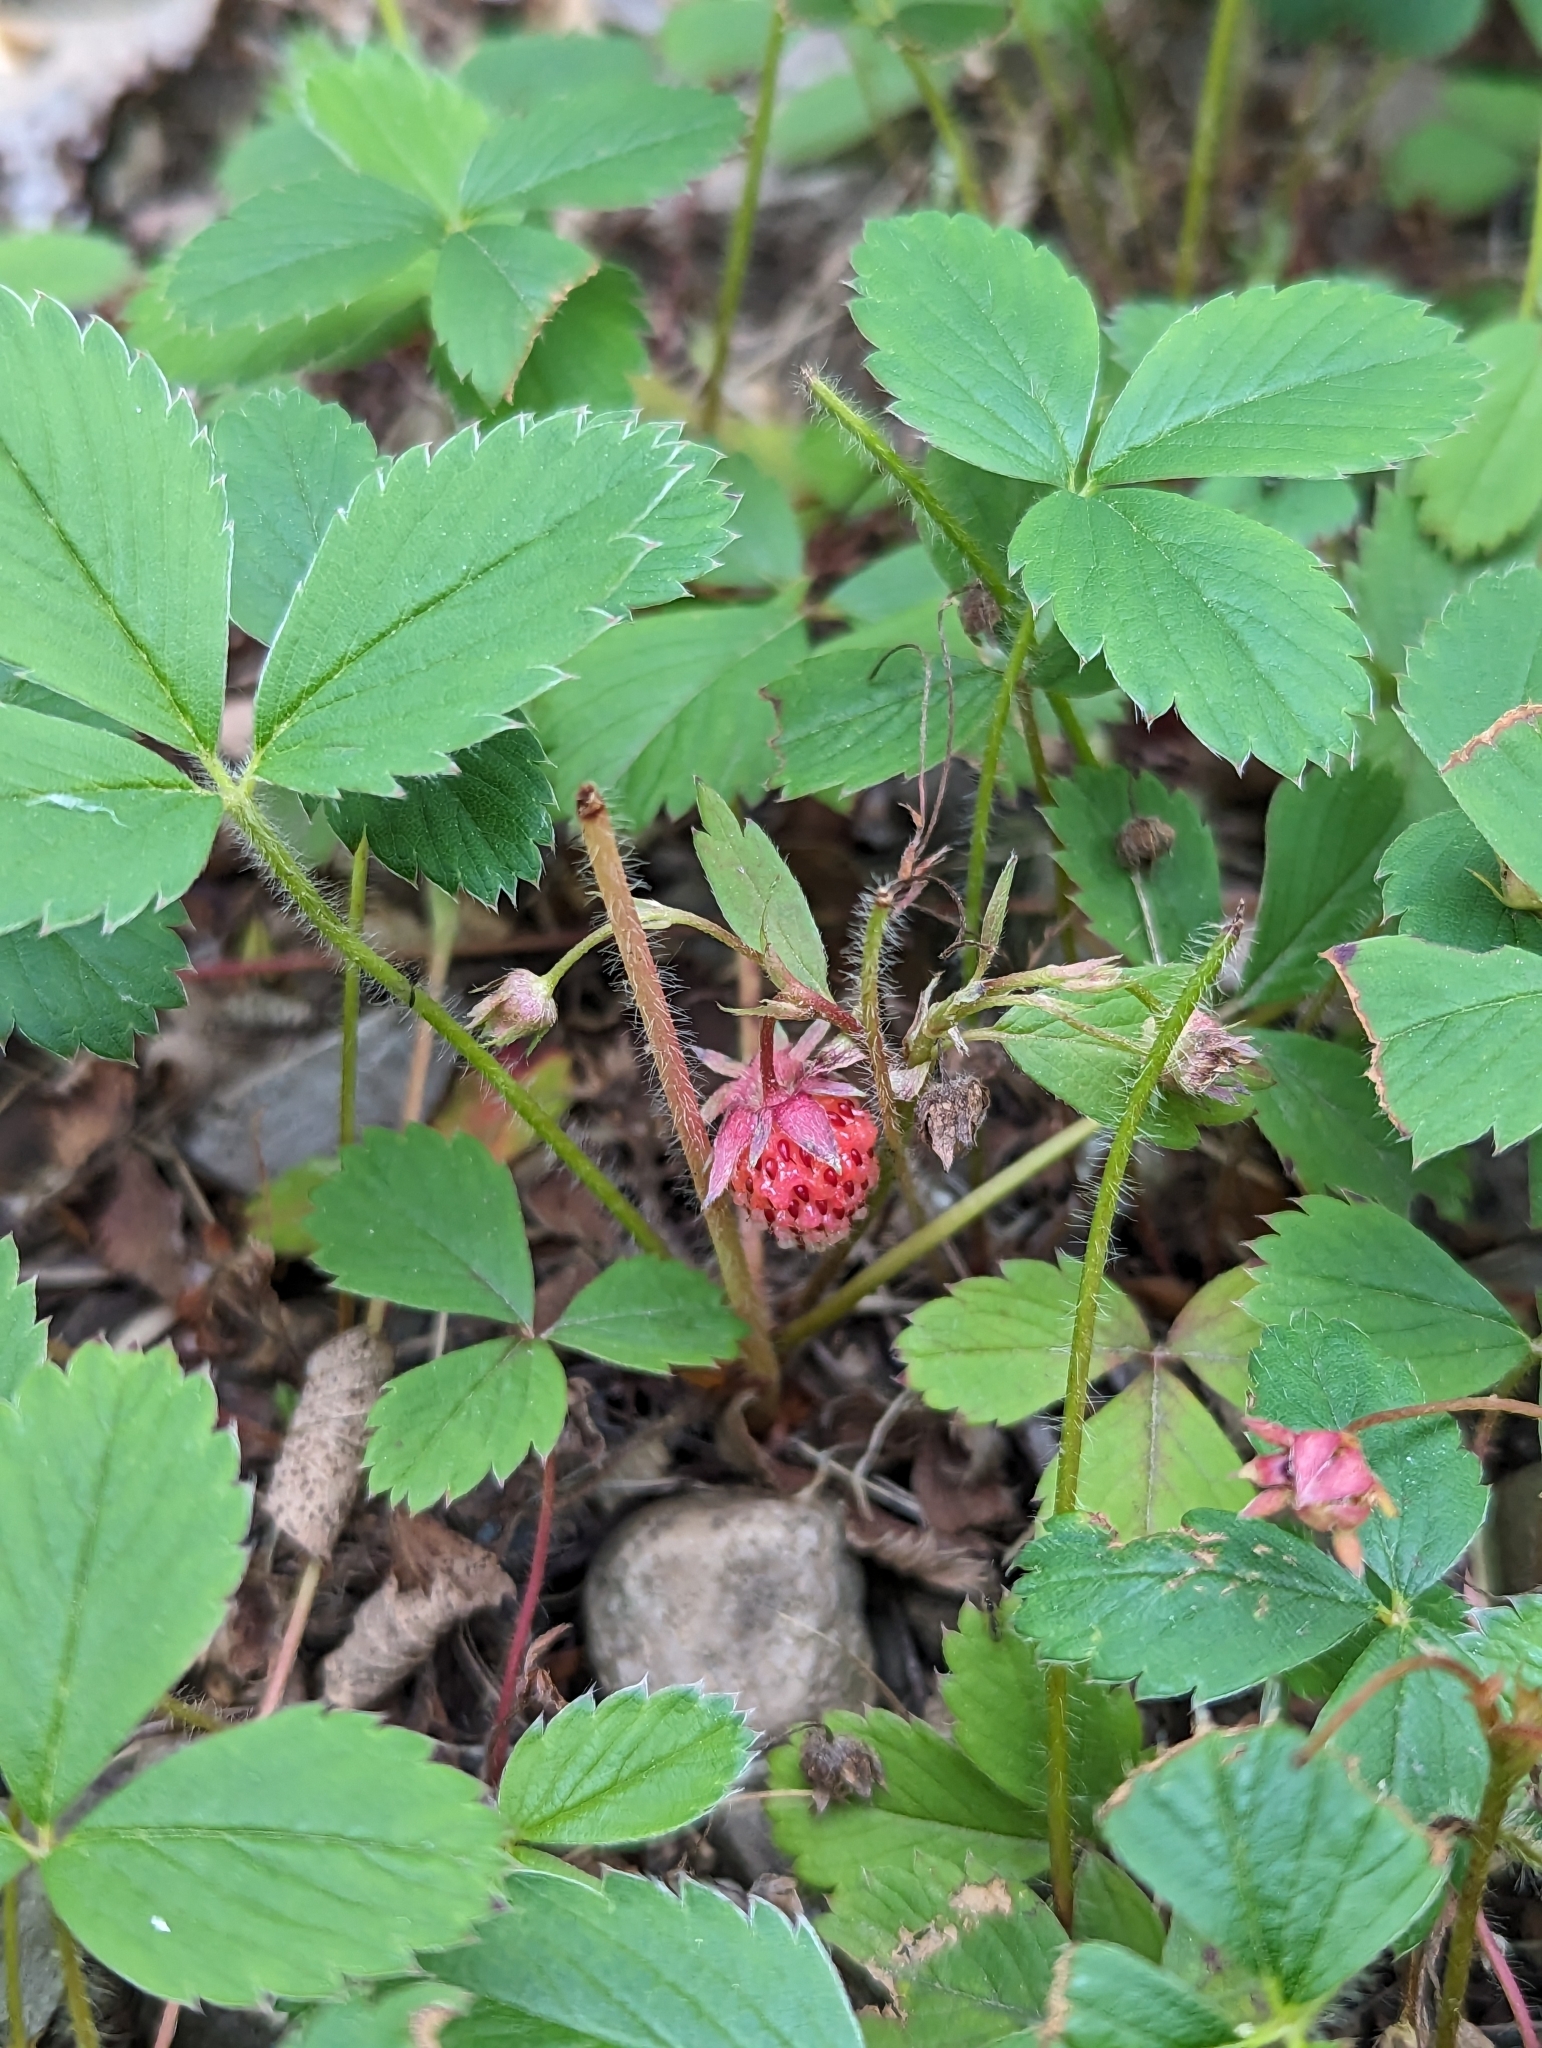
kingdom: Plantae
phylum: Tracheophyta
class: Magnoliopsida
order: Rosales
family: Rosaceae
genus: Fragaria
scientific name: Fragaria virginiana
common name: Thickleaved wild strawberry
